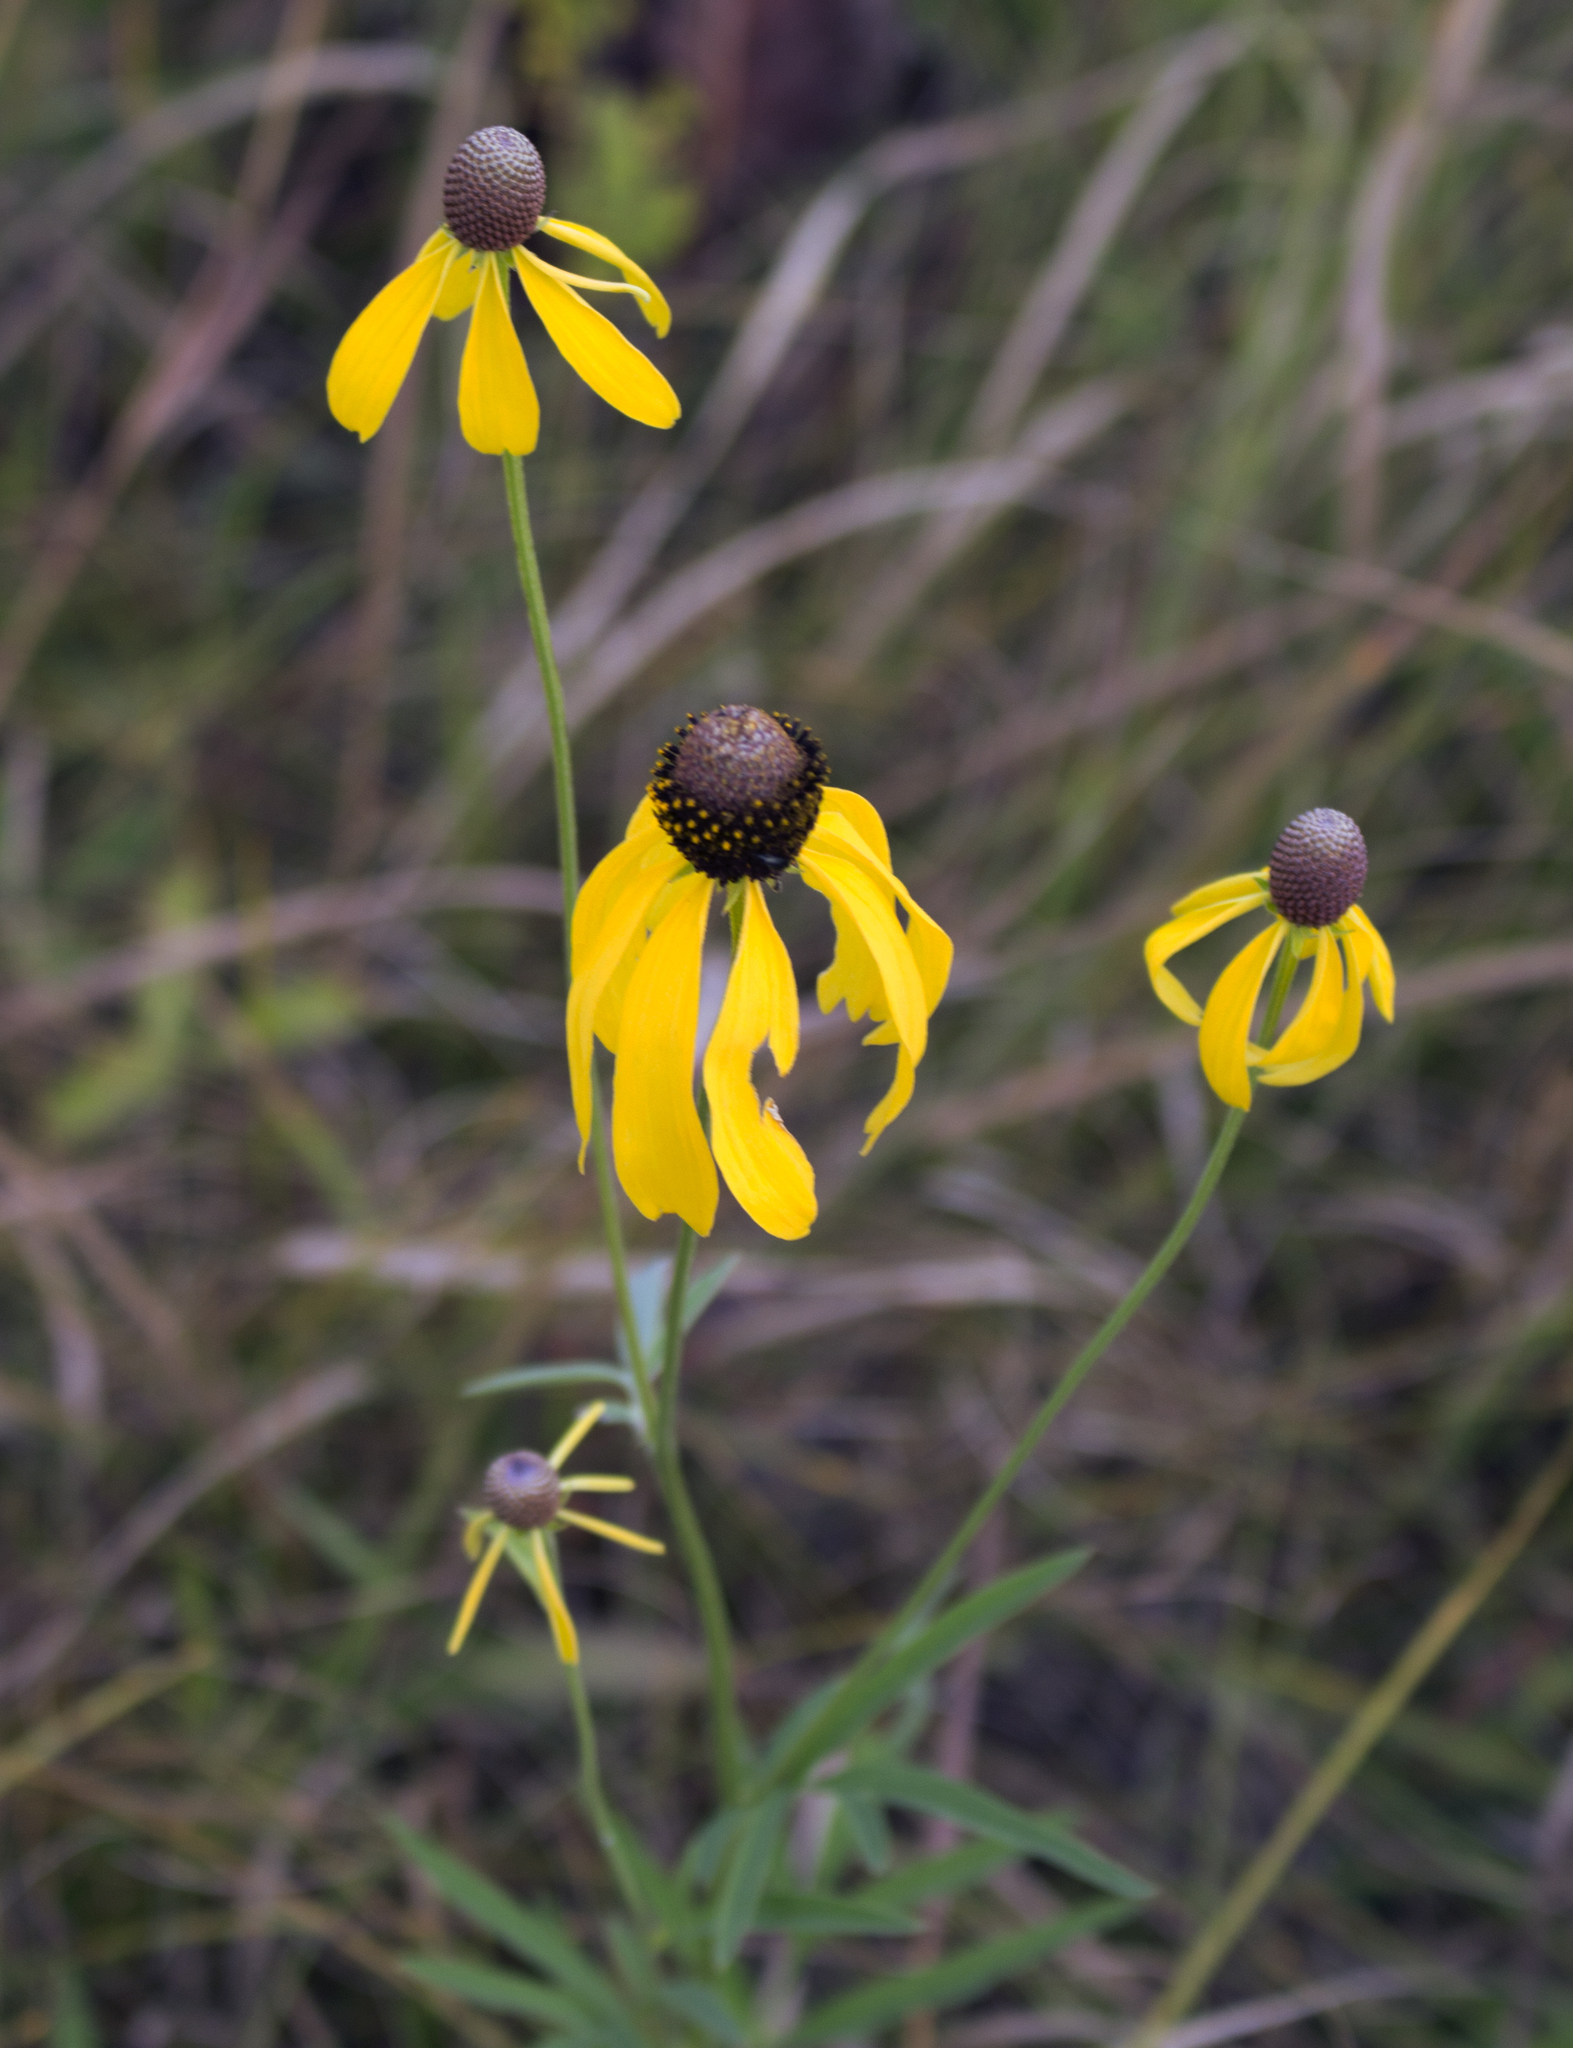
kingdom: Plantae
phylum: Tracheophyta
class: Magnoliopsida
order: Asterales
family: Asteraceae
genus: Ratibida
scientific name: Ratibida pinnata
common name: Drooping prairie-coneflower
